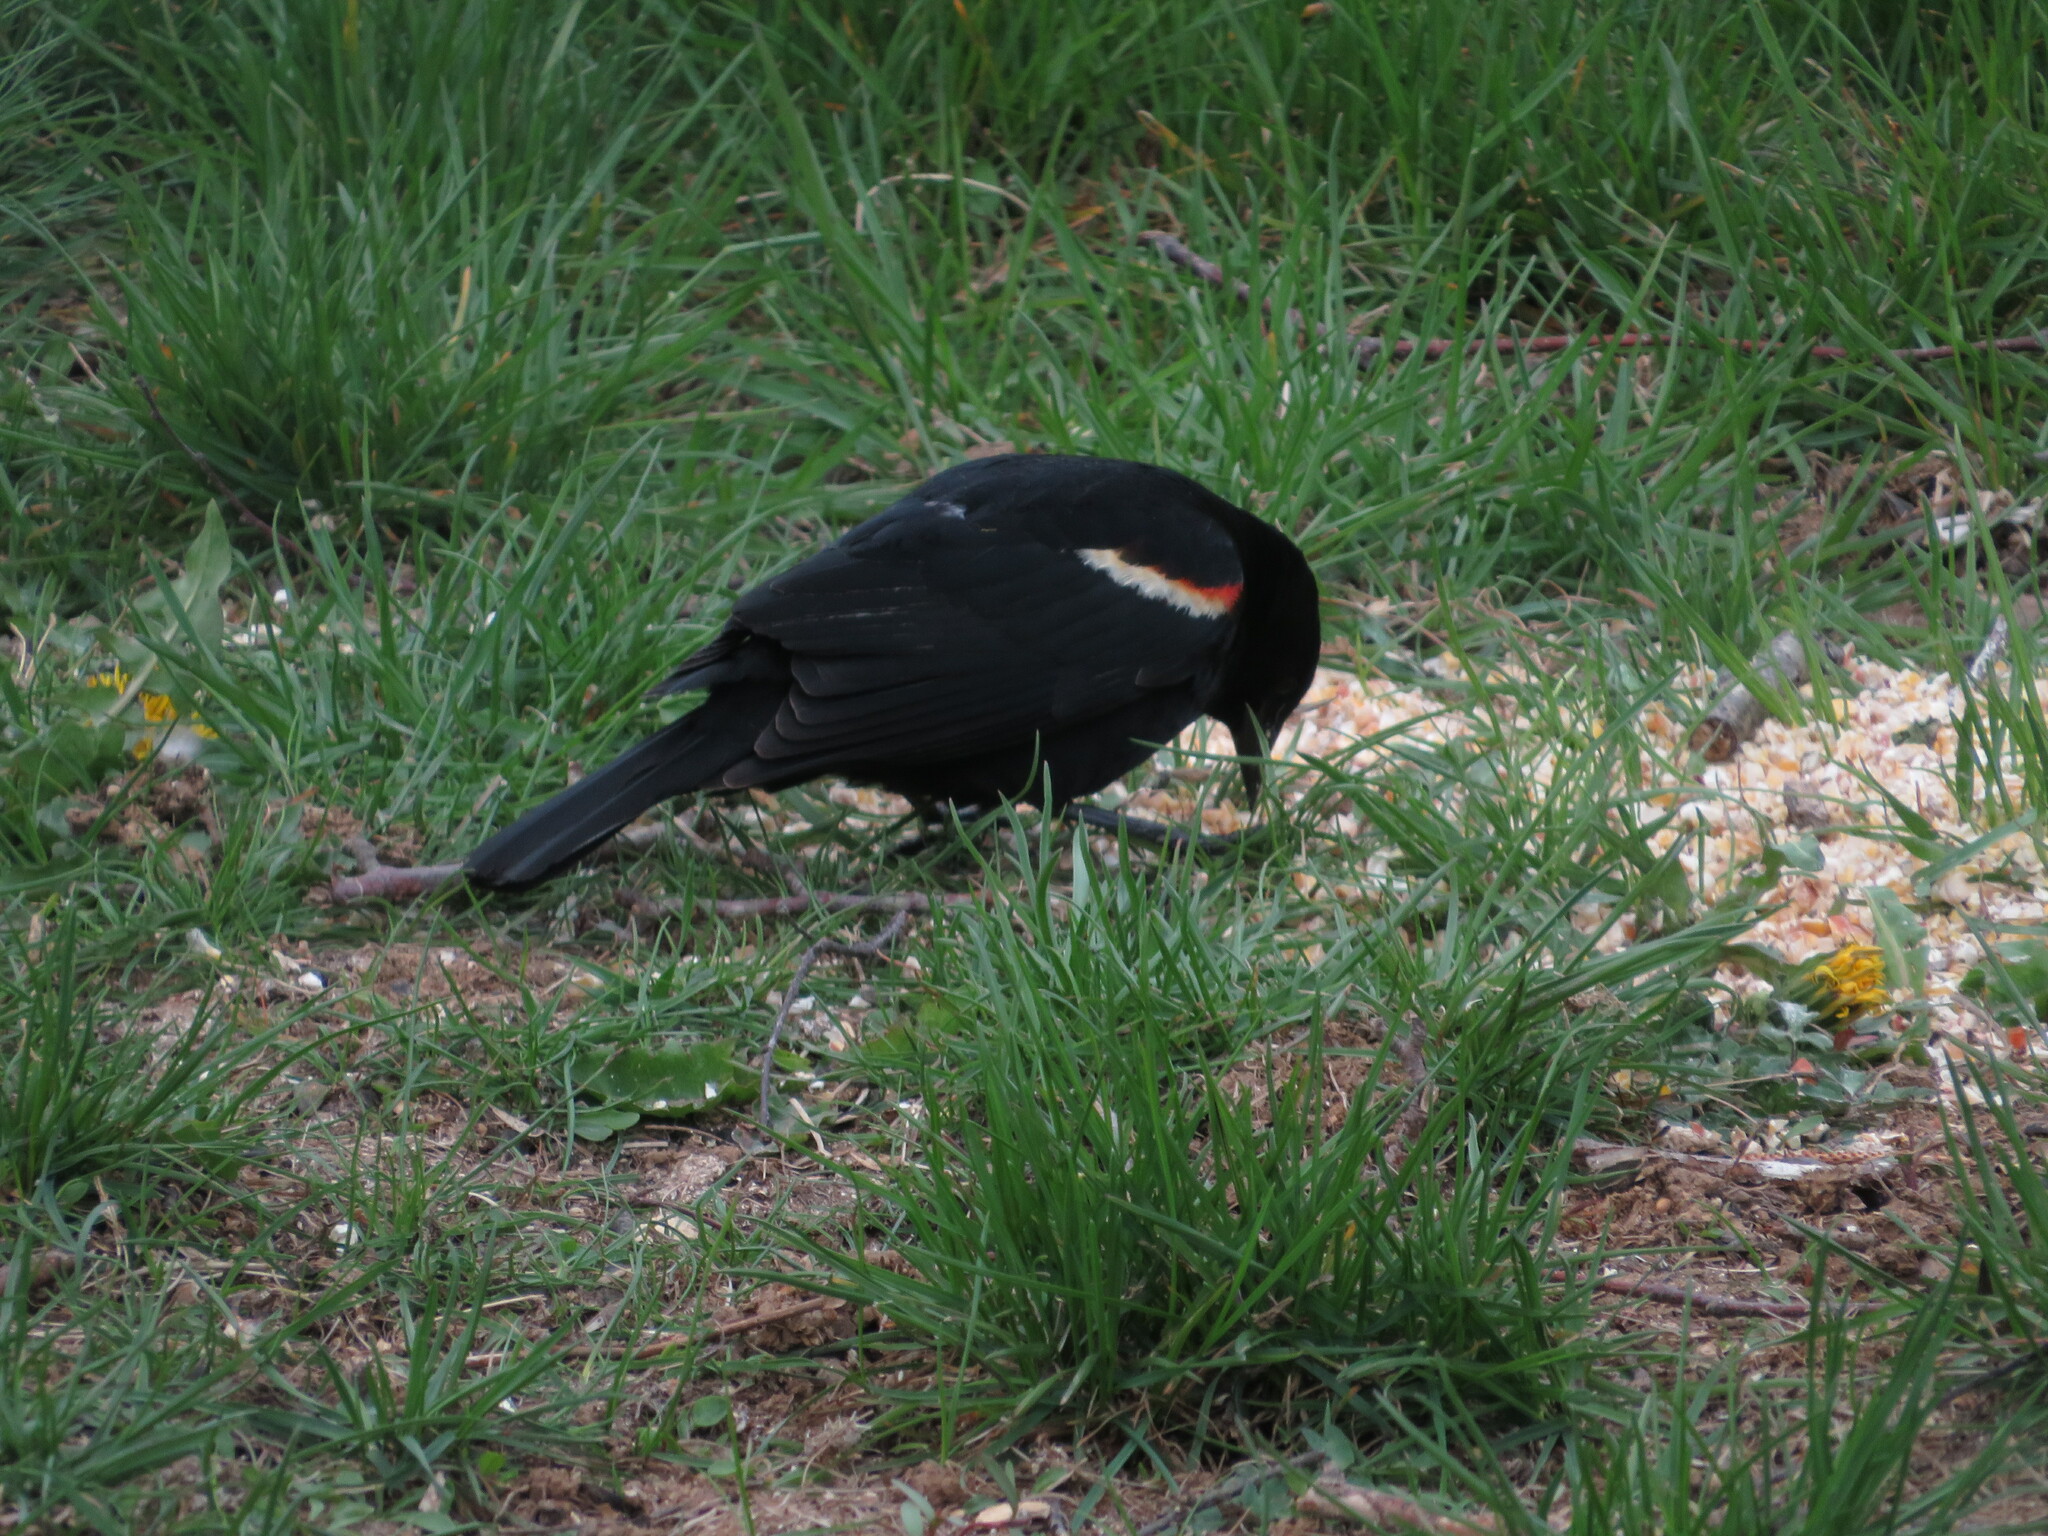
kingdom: Animalia
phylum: Chordata
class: Aves
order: Passeriformes
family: Icteridae
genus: Agelaius
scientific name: Agelaius phoeniceus
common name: Red-winged blackbird
